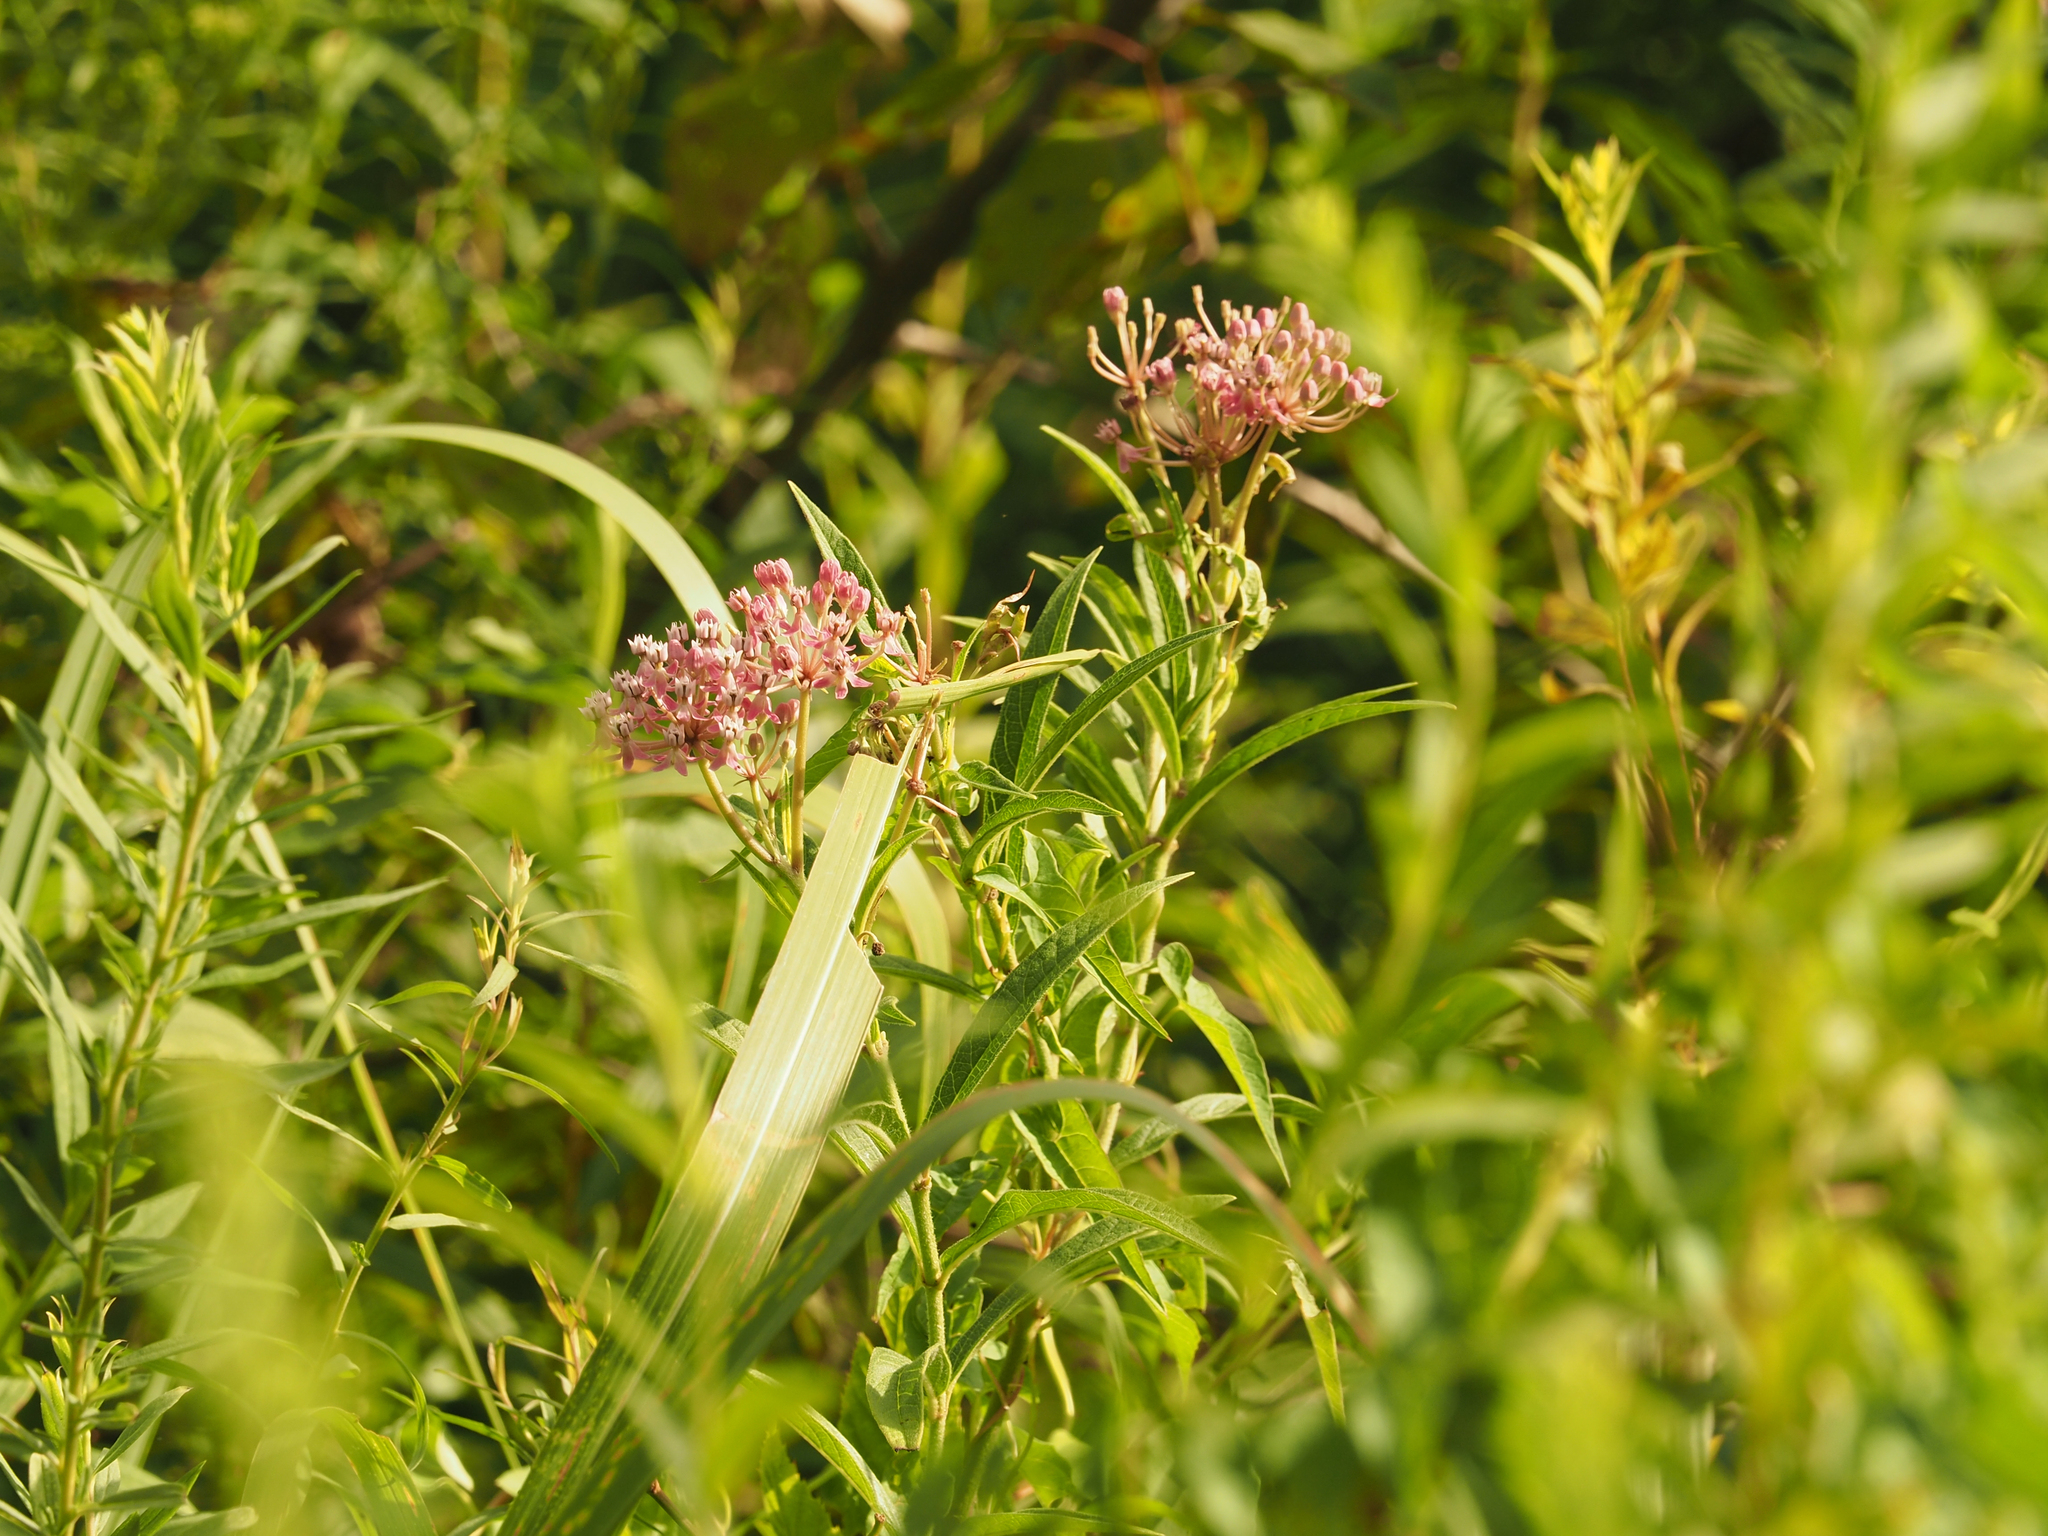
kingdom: Plantae
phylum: Tracheophyta
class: Magnoliopsida
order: Gentianales
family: Apocynaceae
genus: Asclepias
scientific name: Asclepias incarnata
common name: Swamp milkweed
